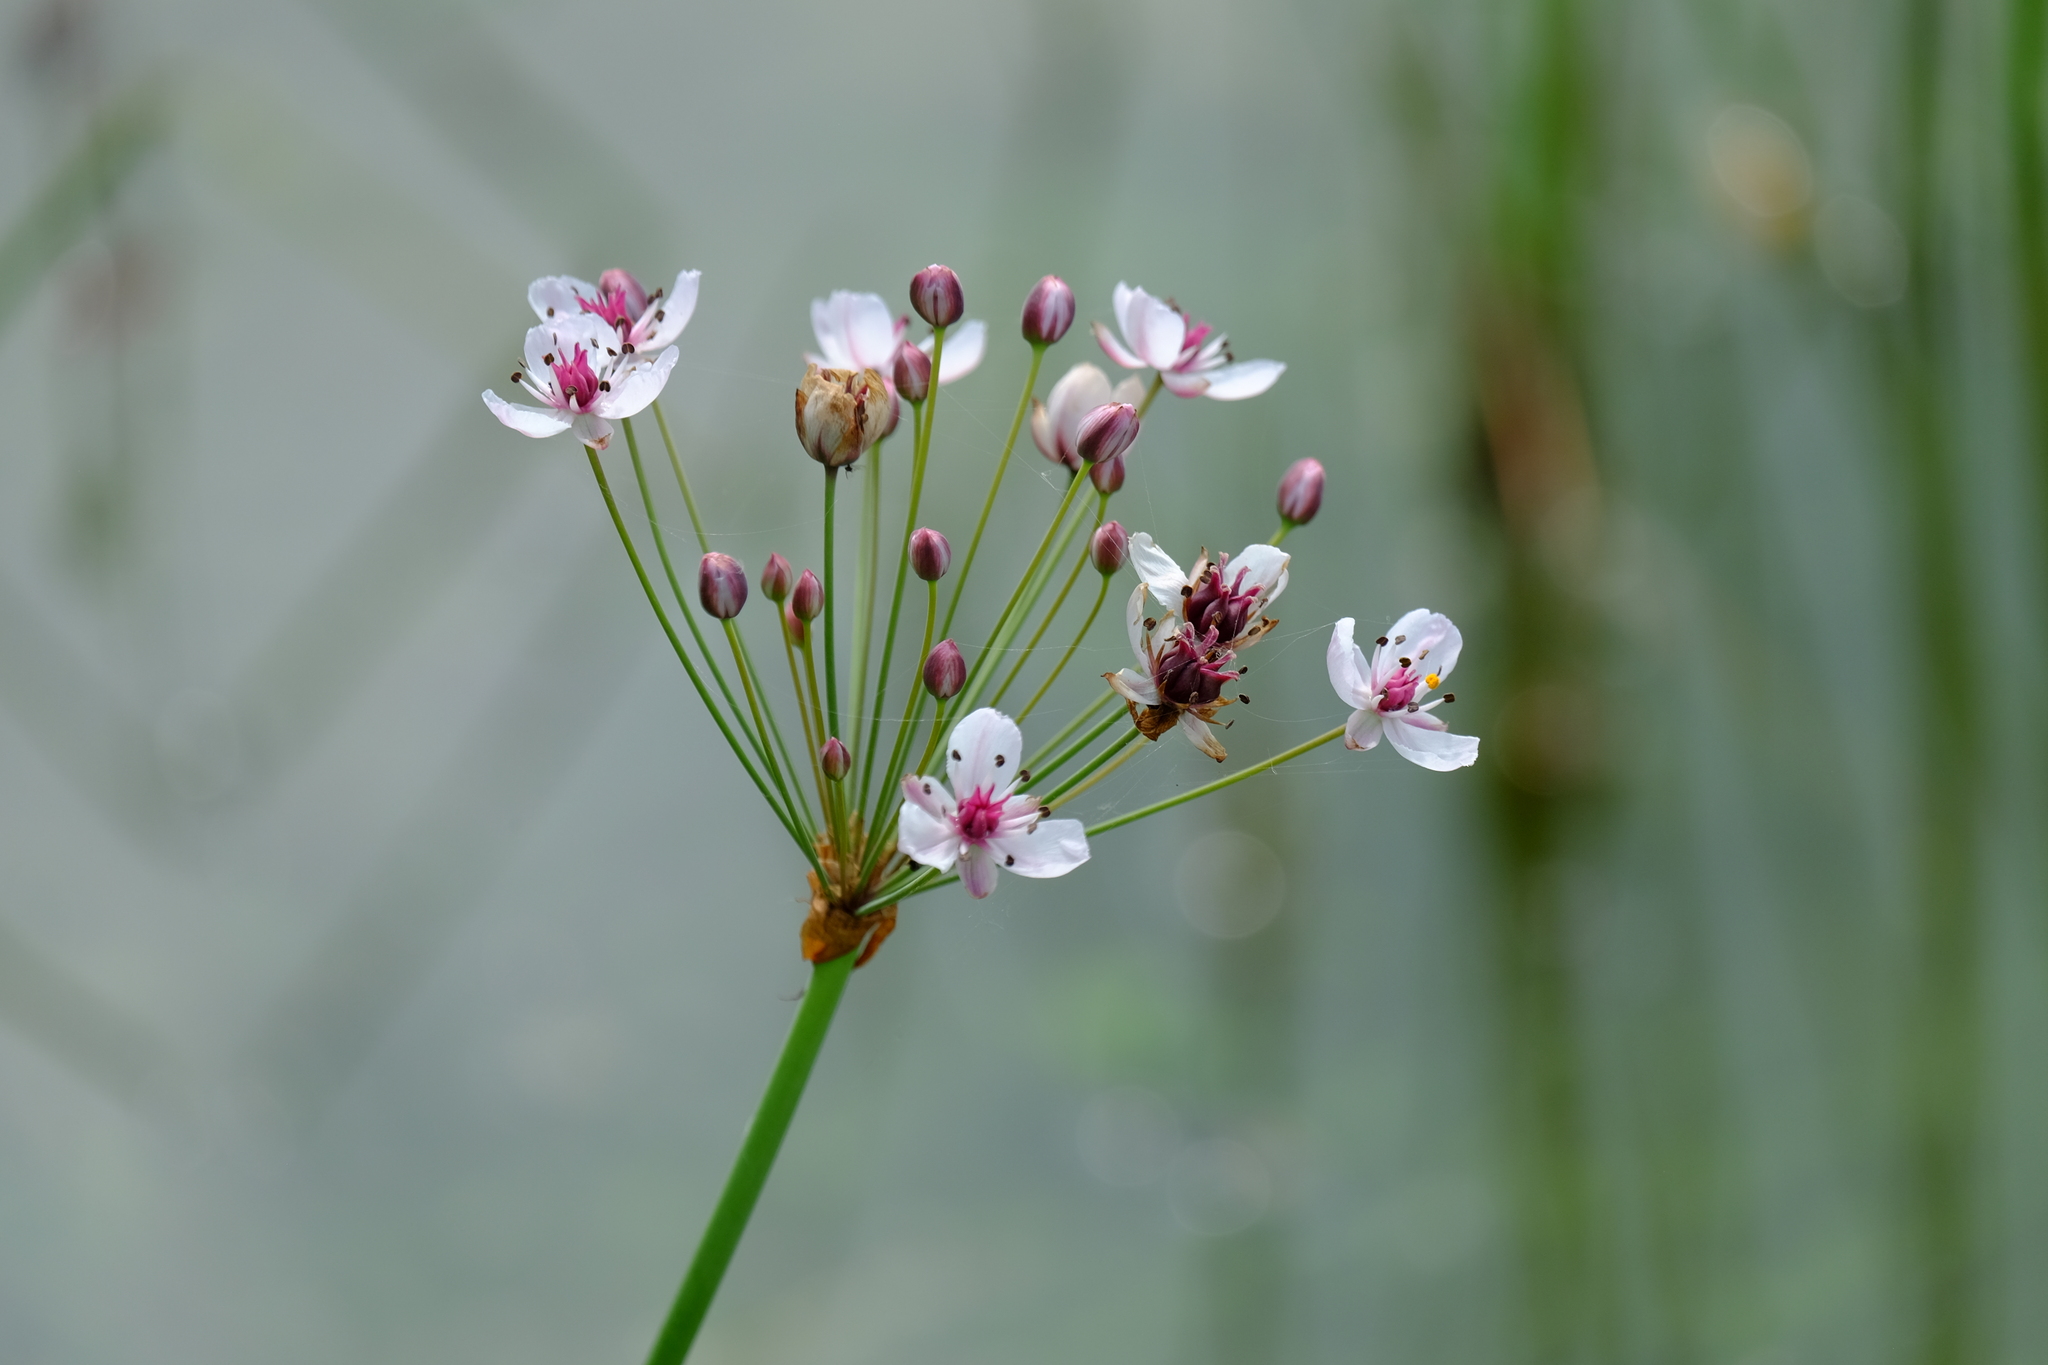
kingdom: Plantae
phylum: Tracheophyta
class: Liliopsida
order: Alismatales
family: Butomaceae
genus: Butomus
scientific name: Butomus umbellatus
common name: Flowering-rush
